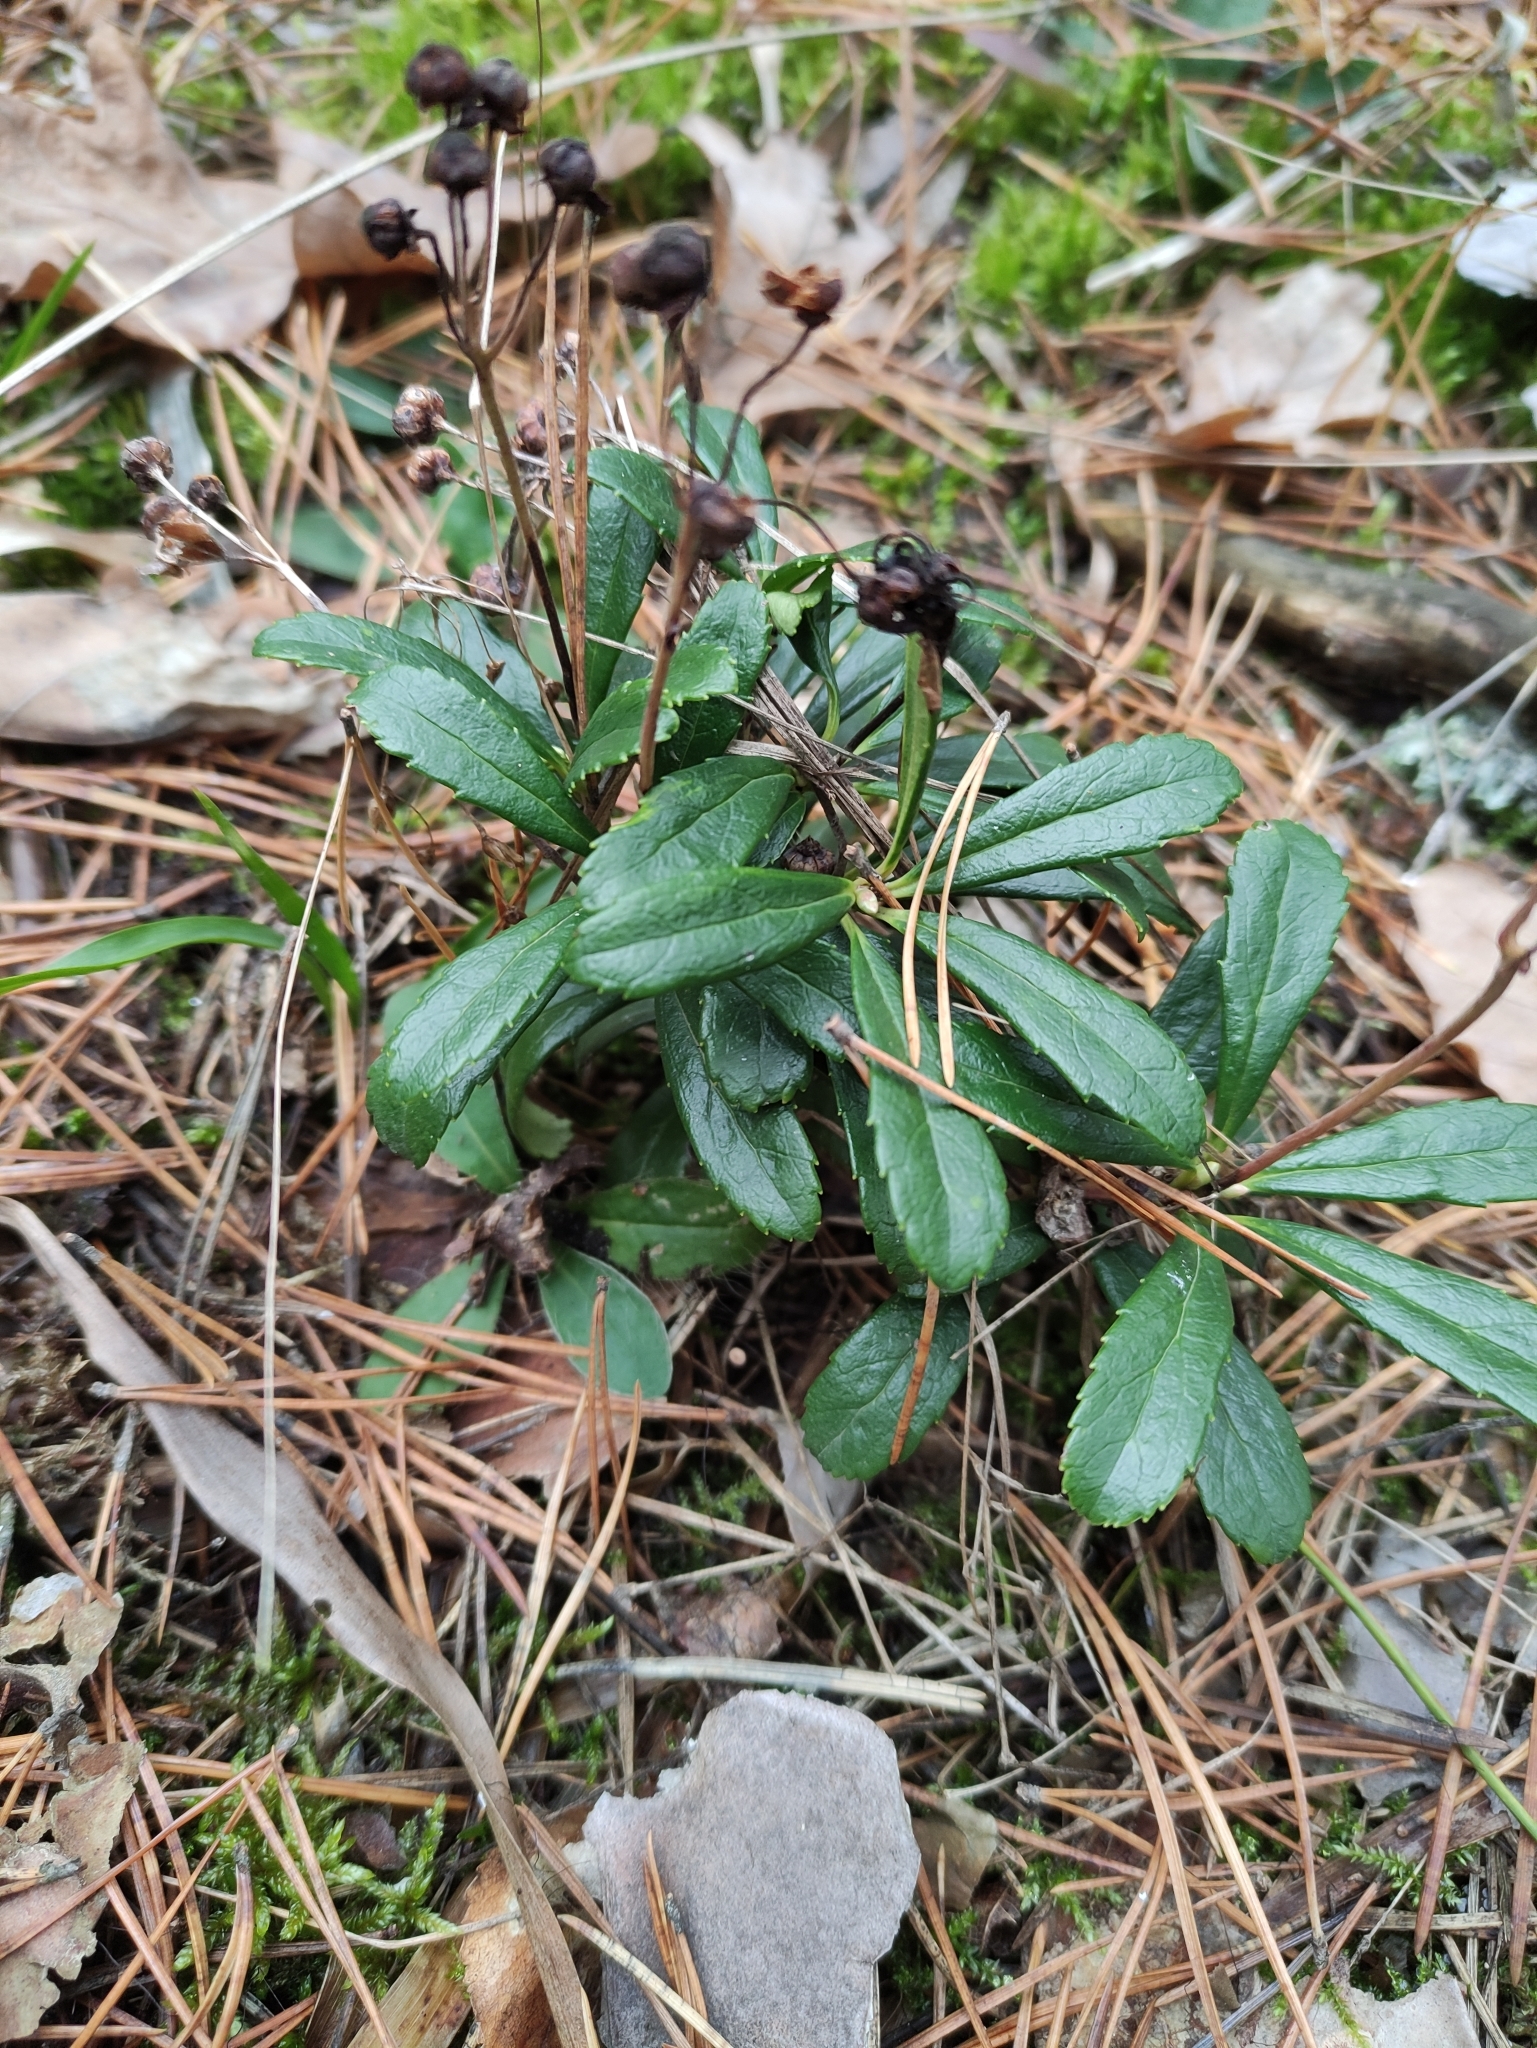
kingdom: Plantae
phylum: Tracheophyta
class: Magnoliopsida
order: Ericales
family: Ericaceae
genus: Chimaphila
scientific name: Chimaphila umbellata
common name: Pipsissewa
